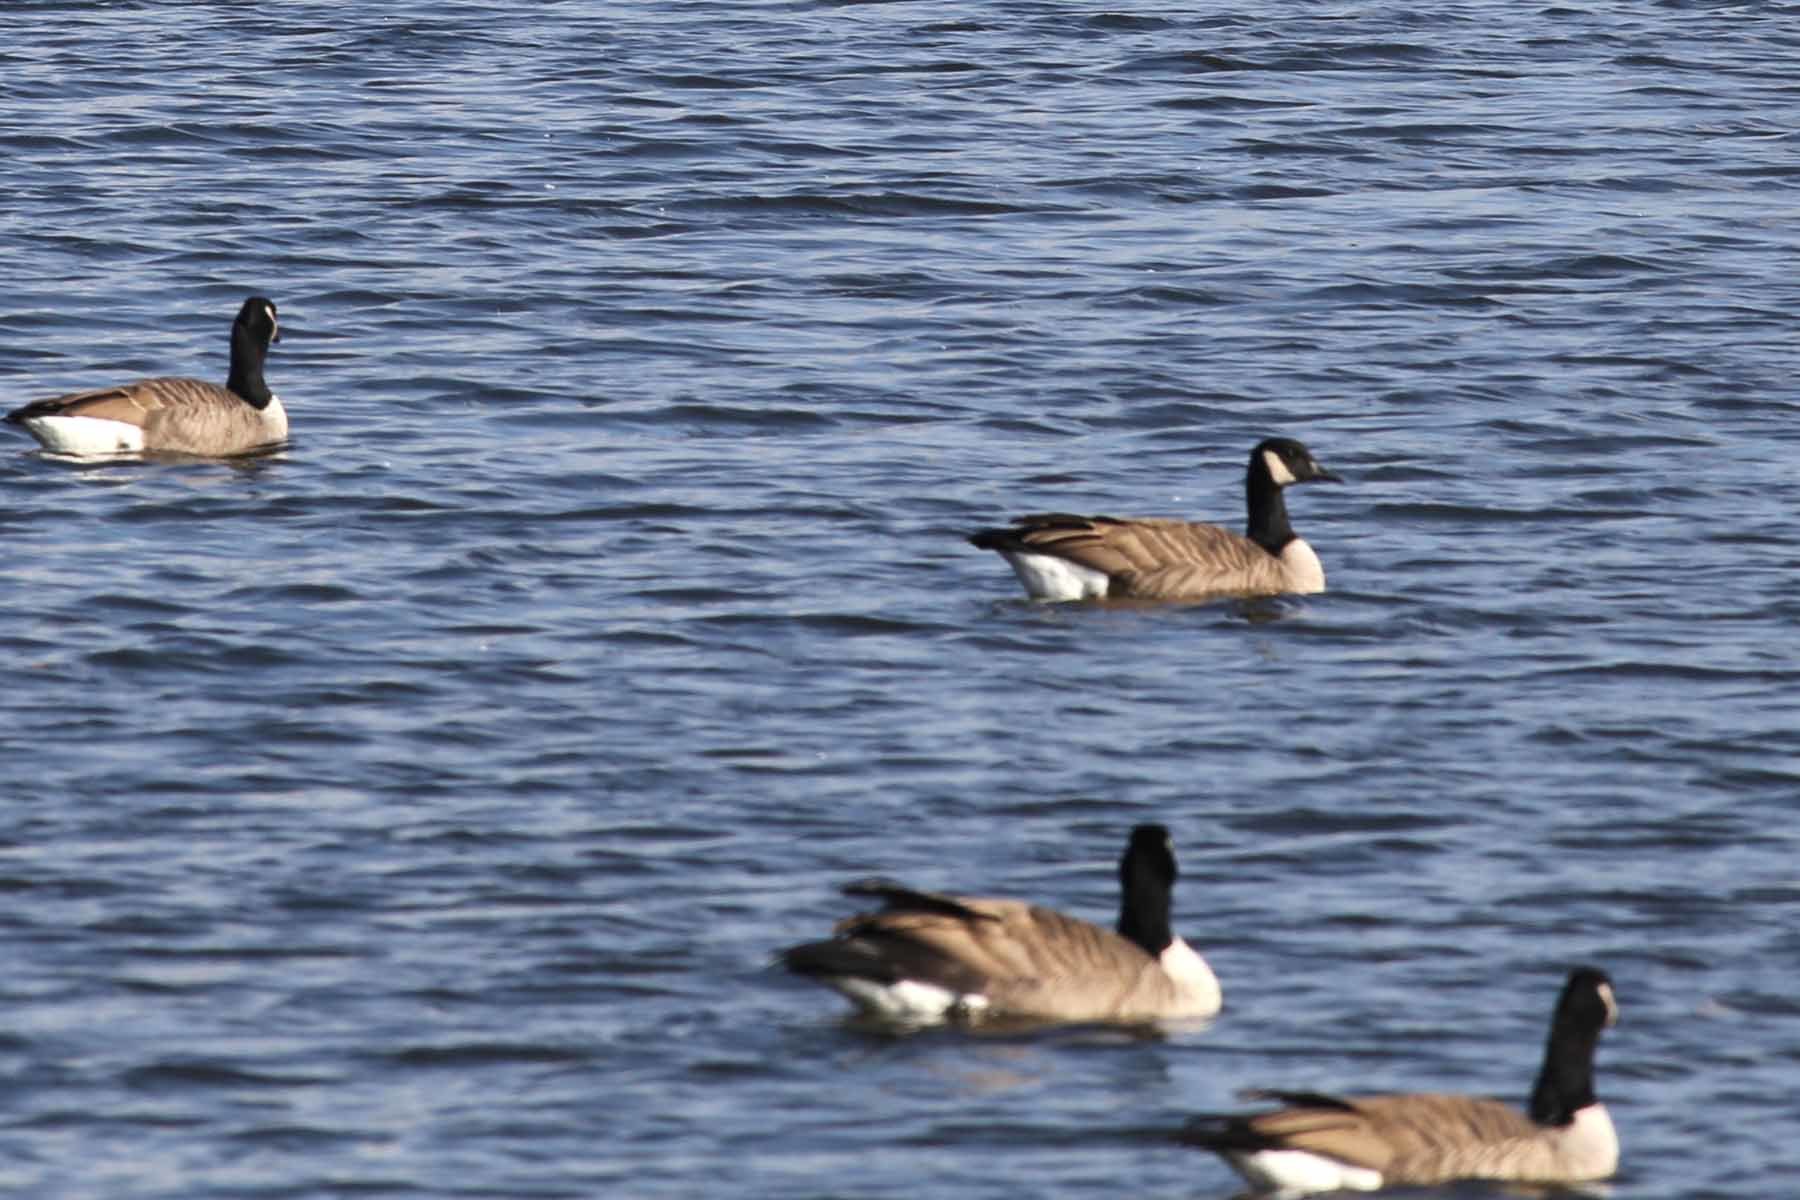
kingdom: Animalia
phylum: Chordata
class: Aves
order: Anseriformes
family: Anatidae
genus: Branta
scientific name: Branta canadensis
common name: Canada goose
